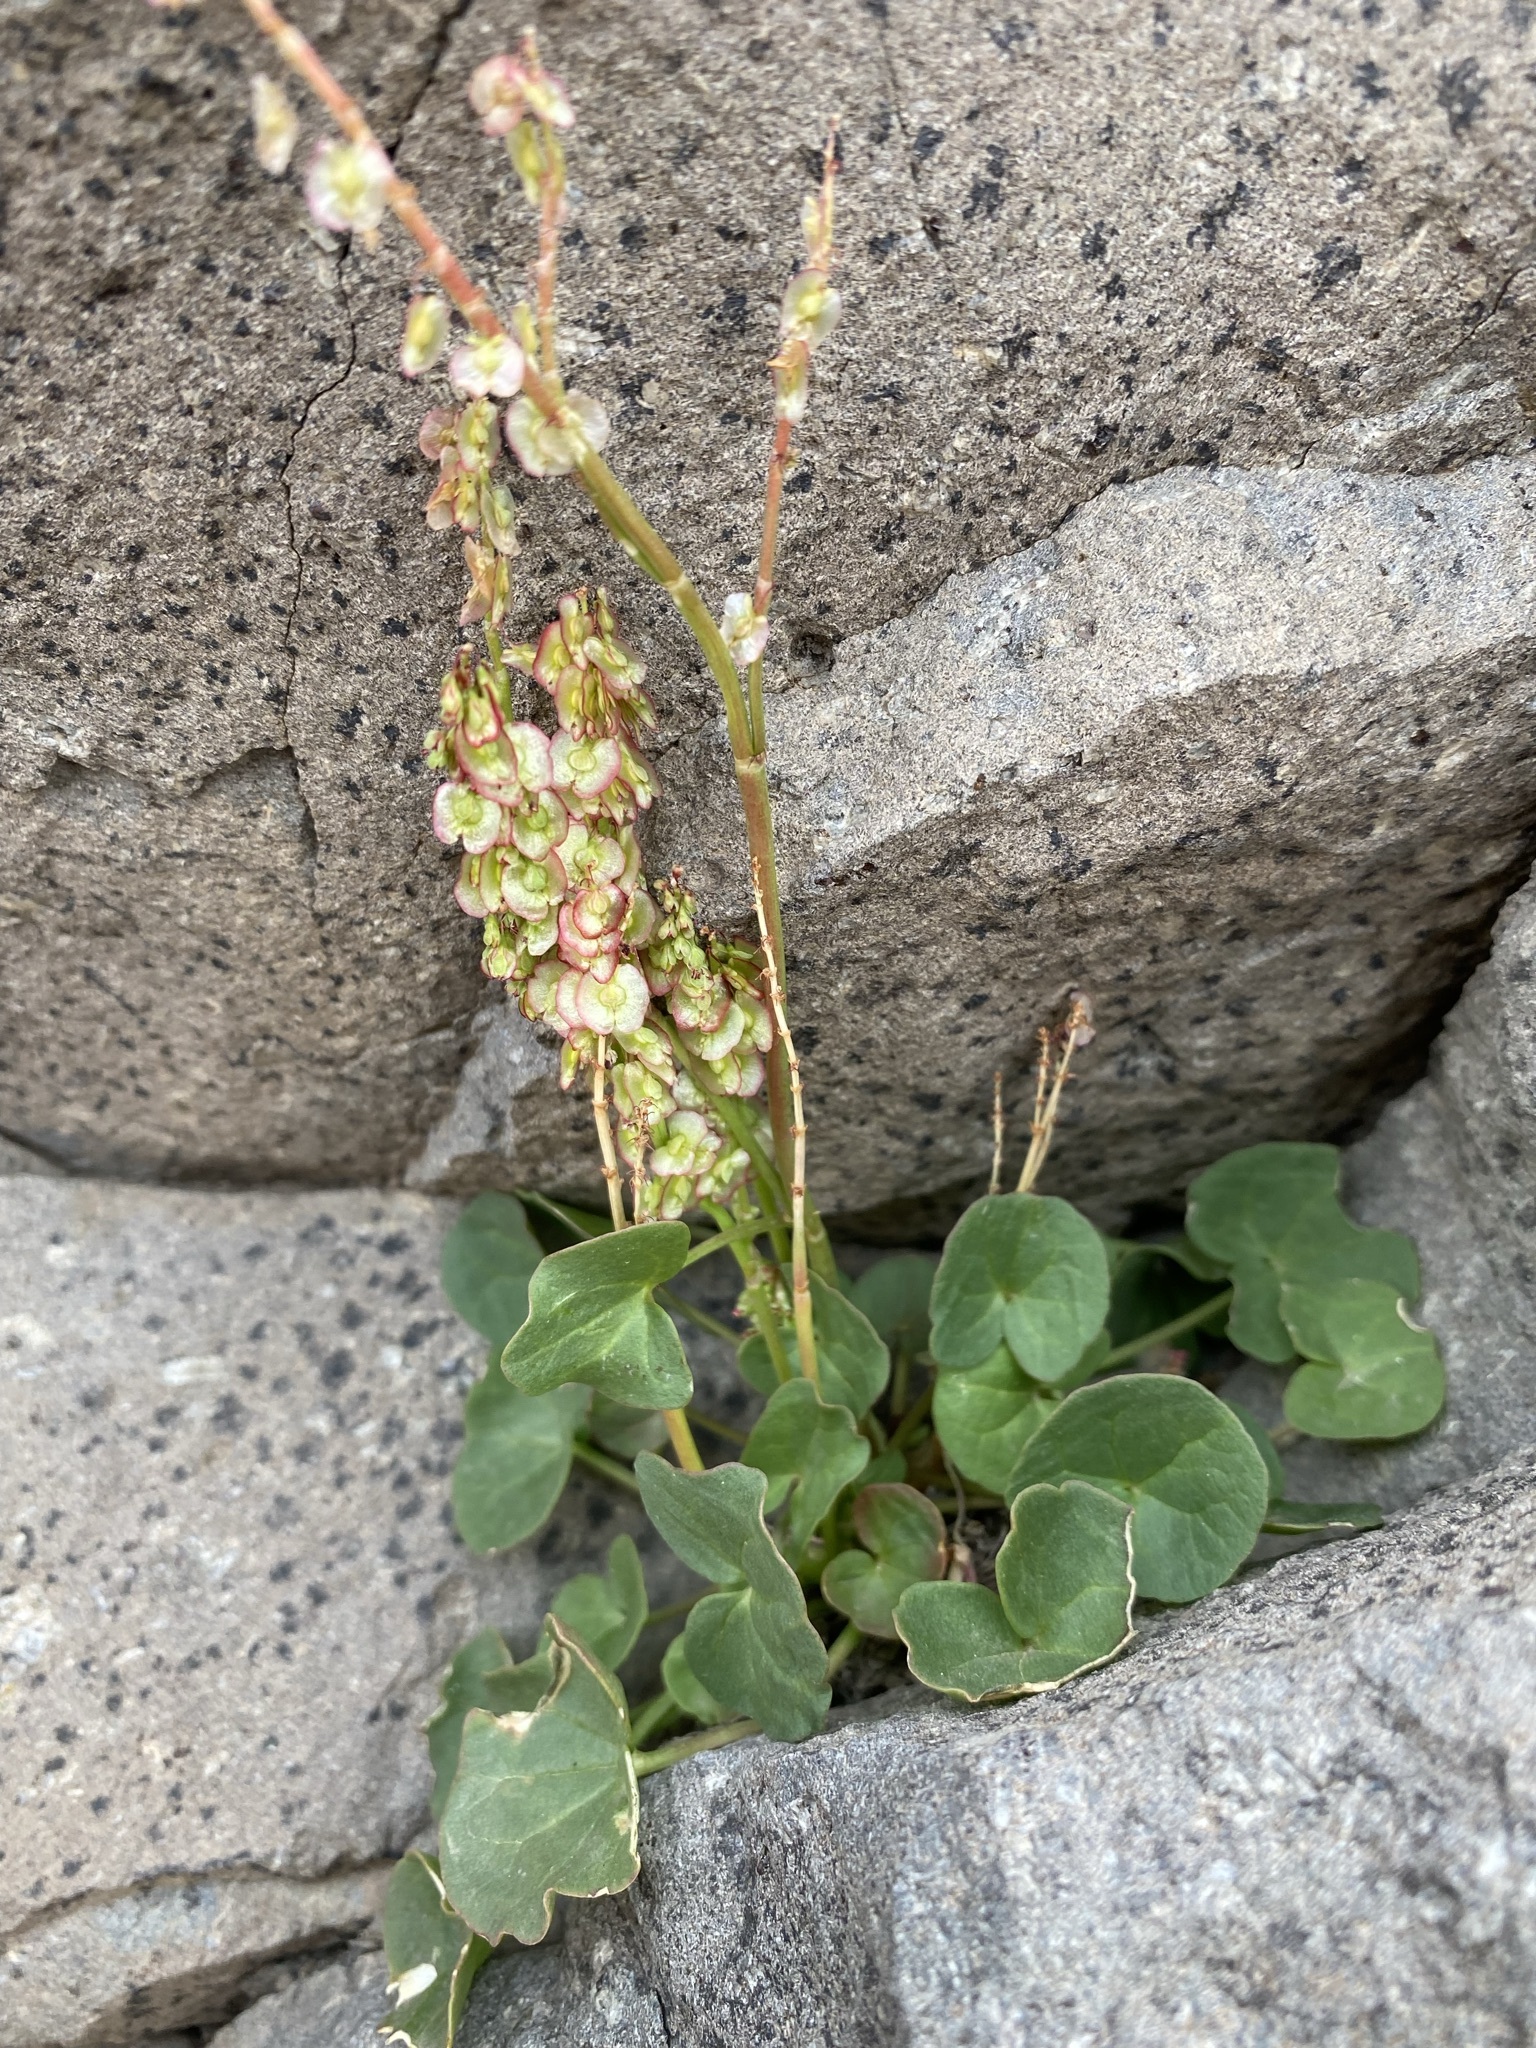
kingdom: Plantae
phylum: Tracheophyta
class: Magnoliopsida
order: Caryophyllales
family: Polygonaceae
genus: Oxyria
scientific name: Oxyria digyna
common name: Alpine mountain-sorrel
